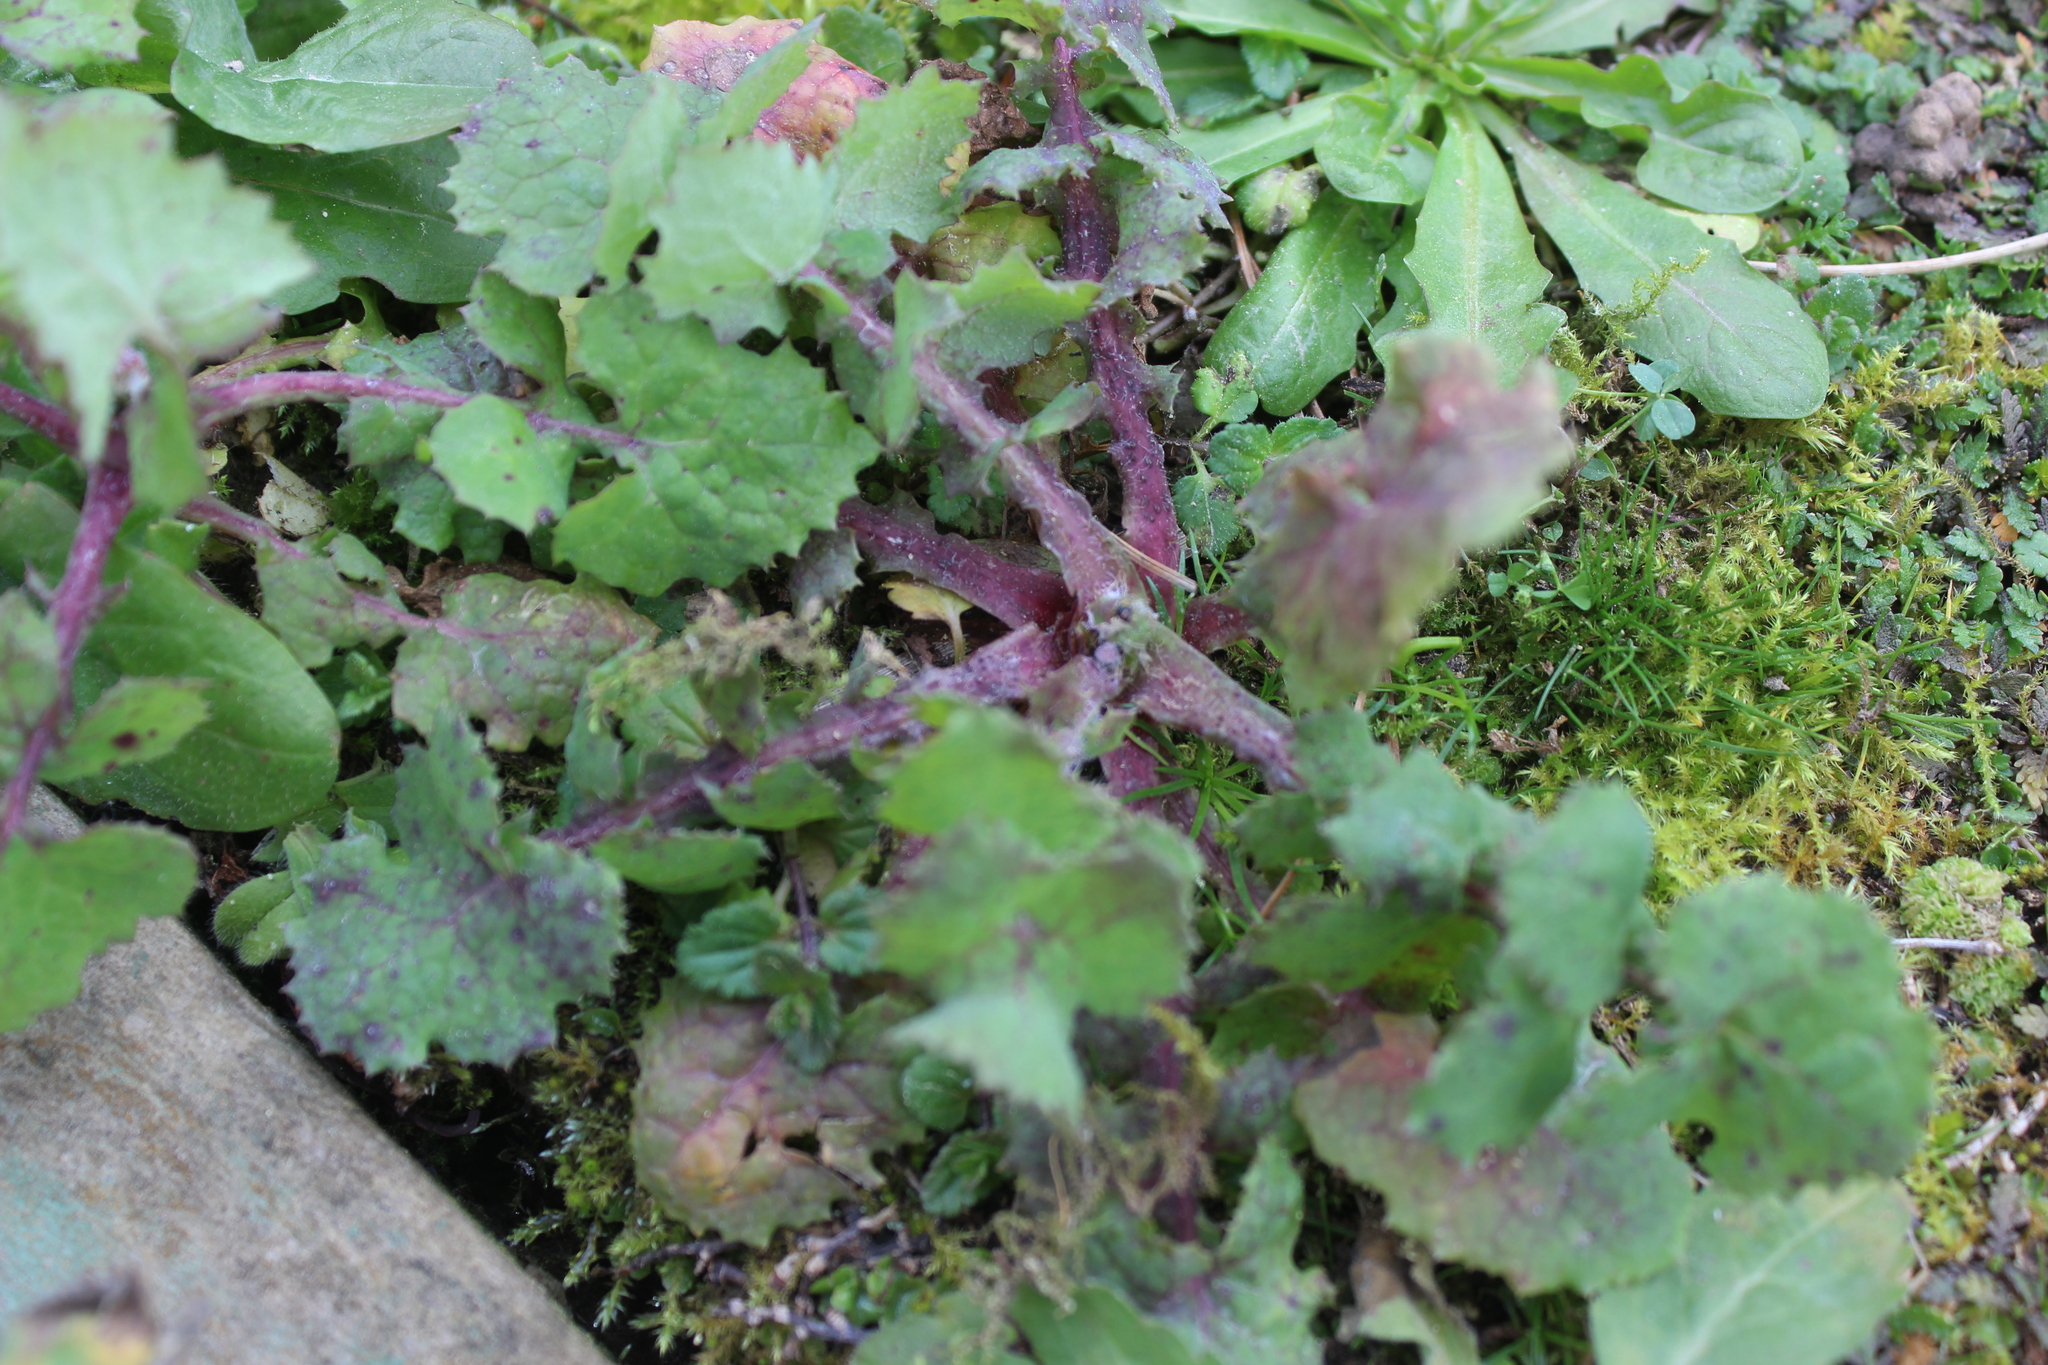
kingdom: Plantae
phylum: Tracheophyta
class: Magnoliopsida
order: Asterales
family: Asteraceae
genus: Sonchus
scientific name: Sonchus oleraceus
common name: Common sowthistle
